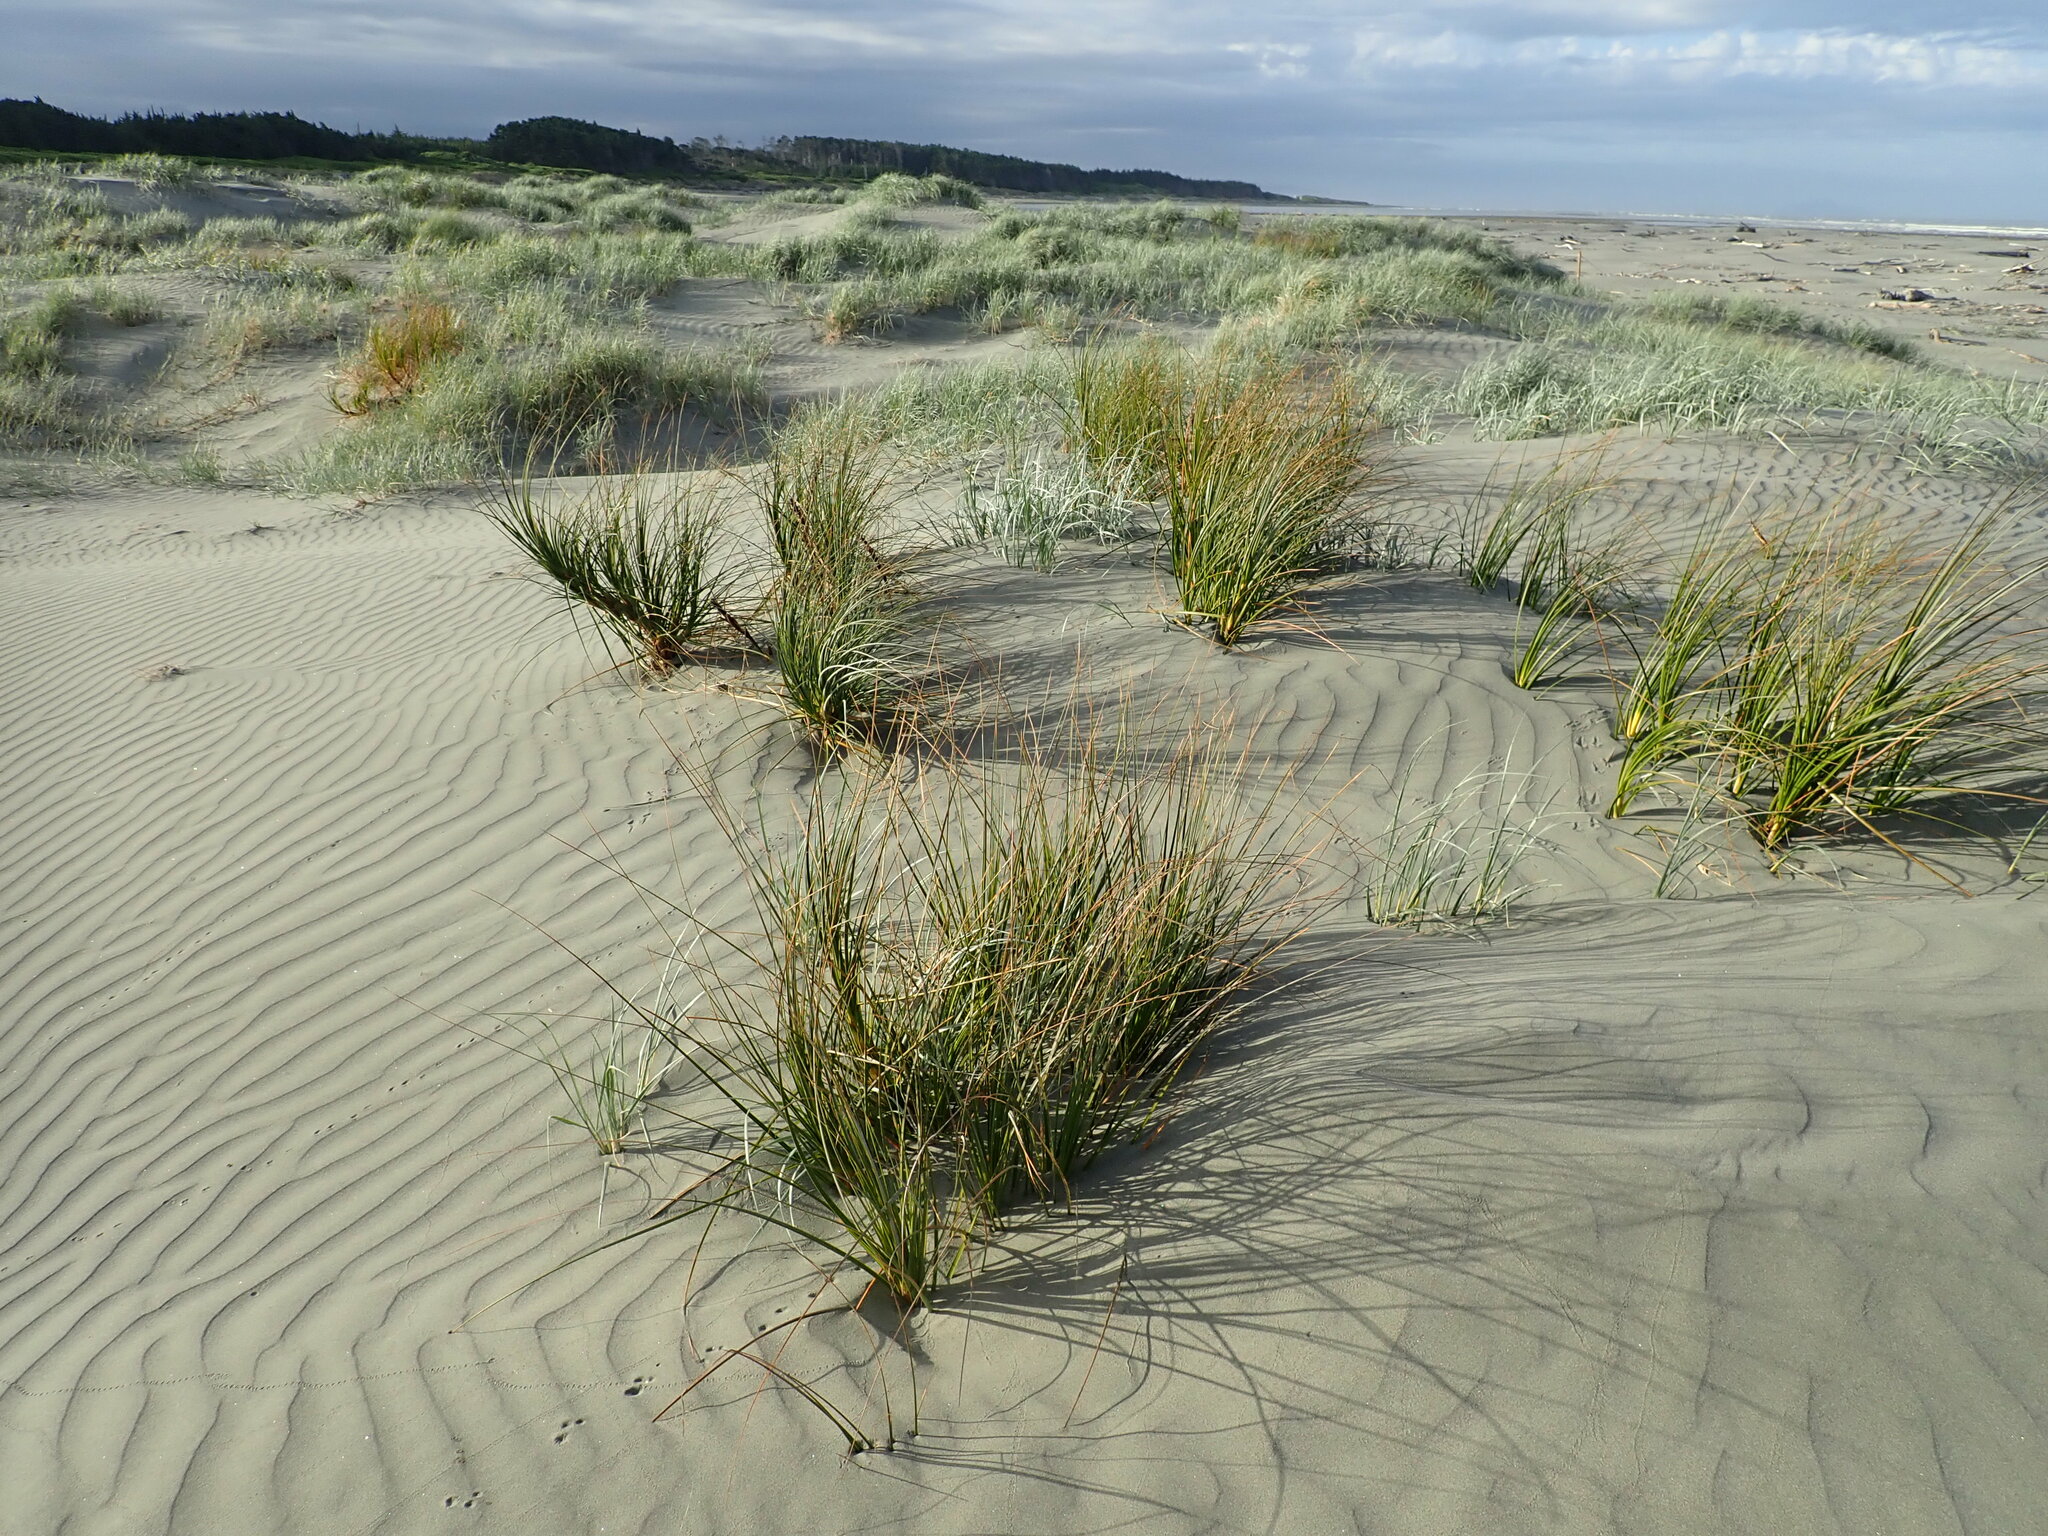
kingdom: Plantae
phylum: Tracheophyta
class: Liliopsida
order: Poales
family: Cyperaceae
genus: Ficinia
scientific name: Ficinia spiralis
